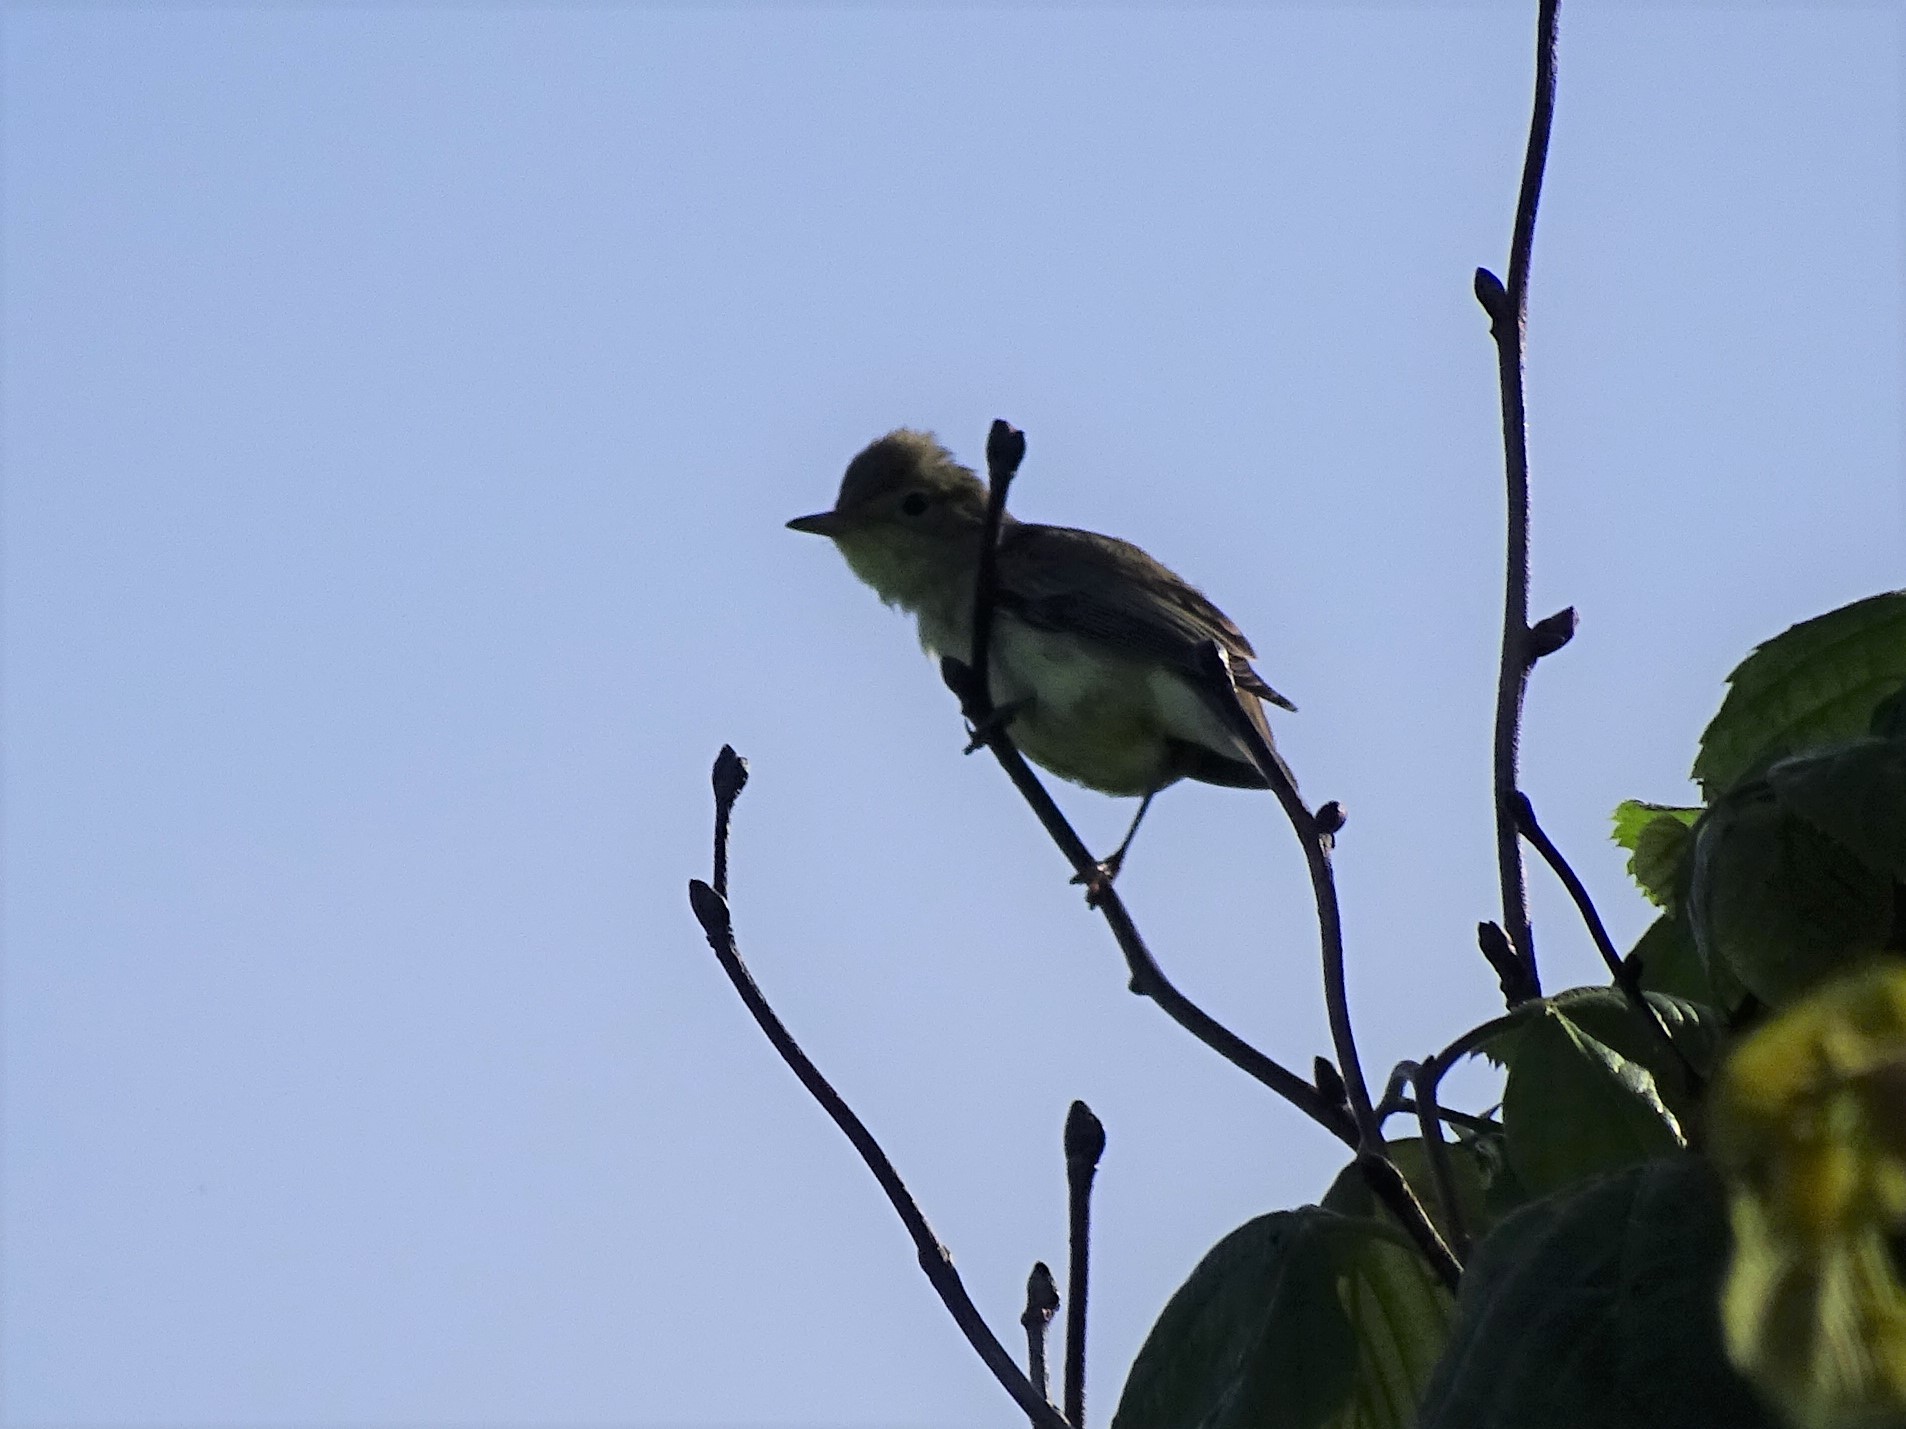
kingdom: Animalia
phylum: Chordata
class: Aves
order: Passeriformes
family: Acrocephalidae
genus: Hippolais
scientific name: Hippolais icterina
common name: Icterine warbler
